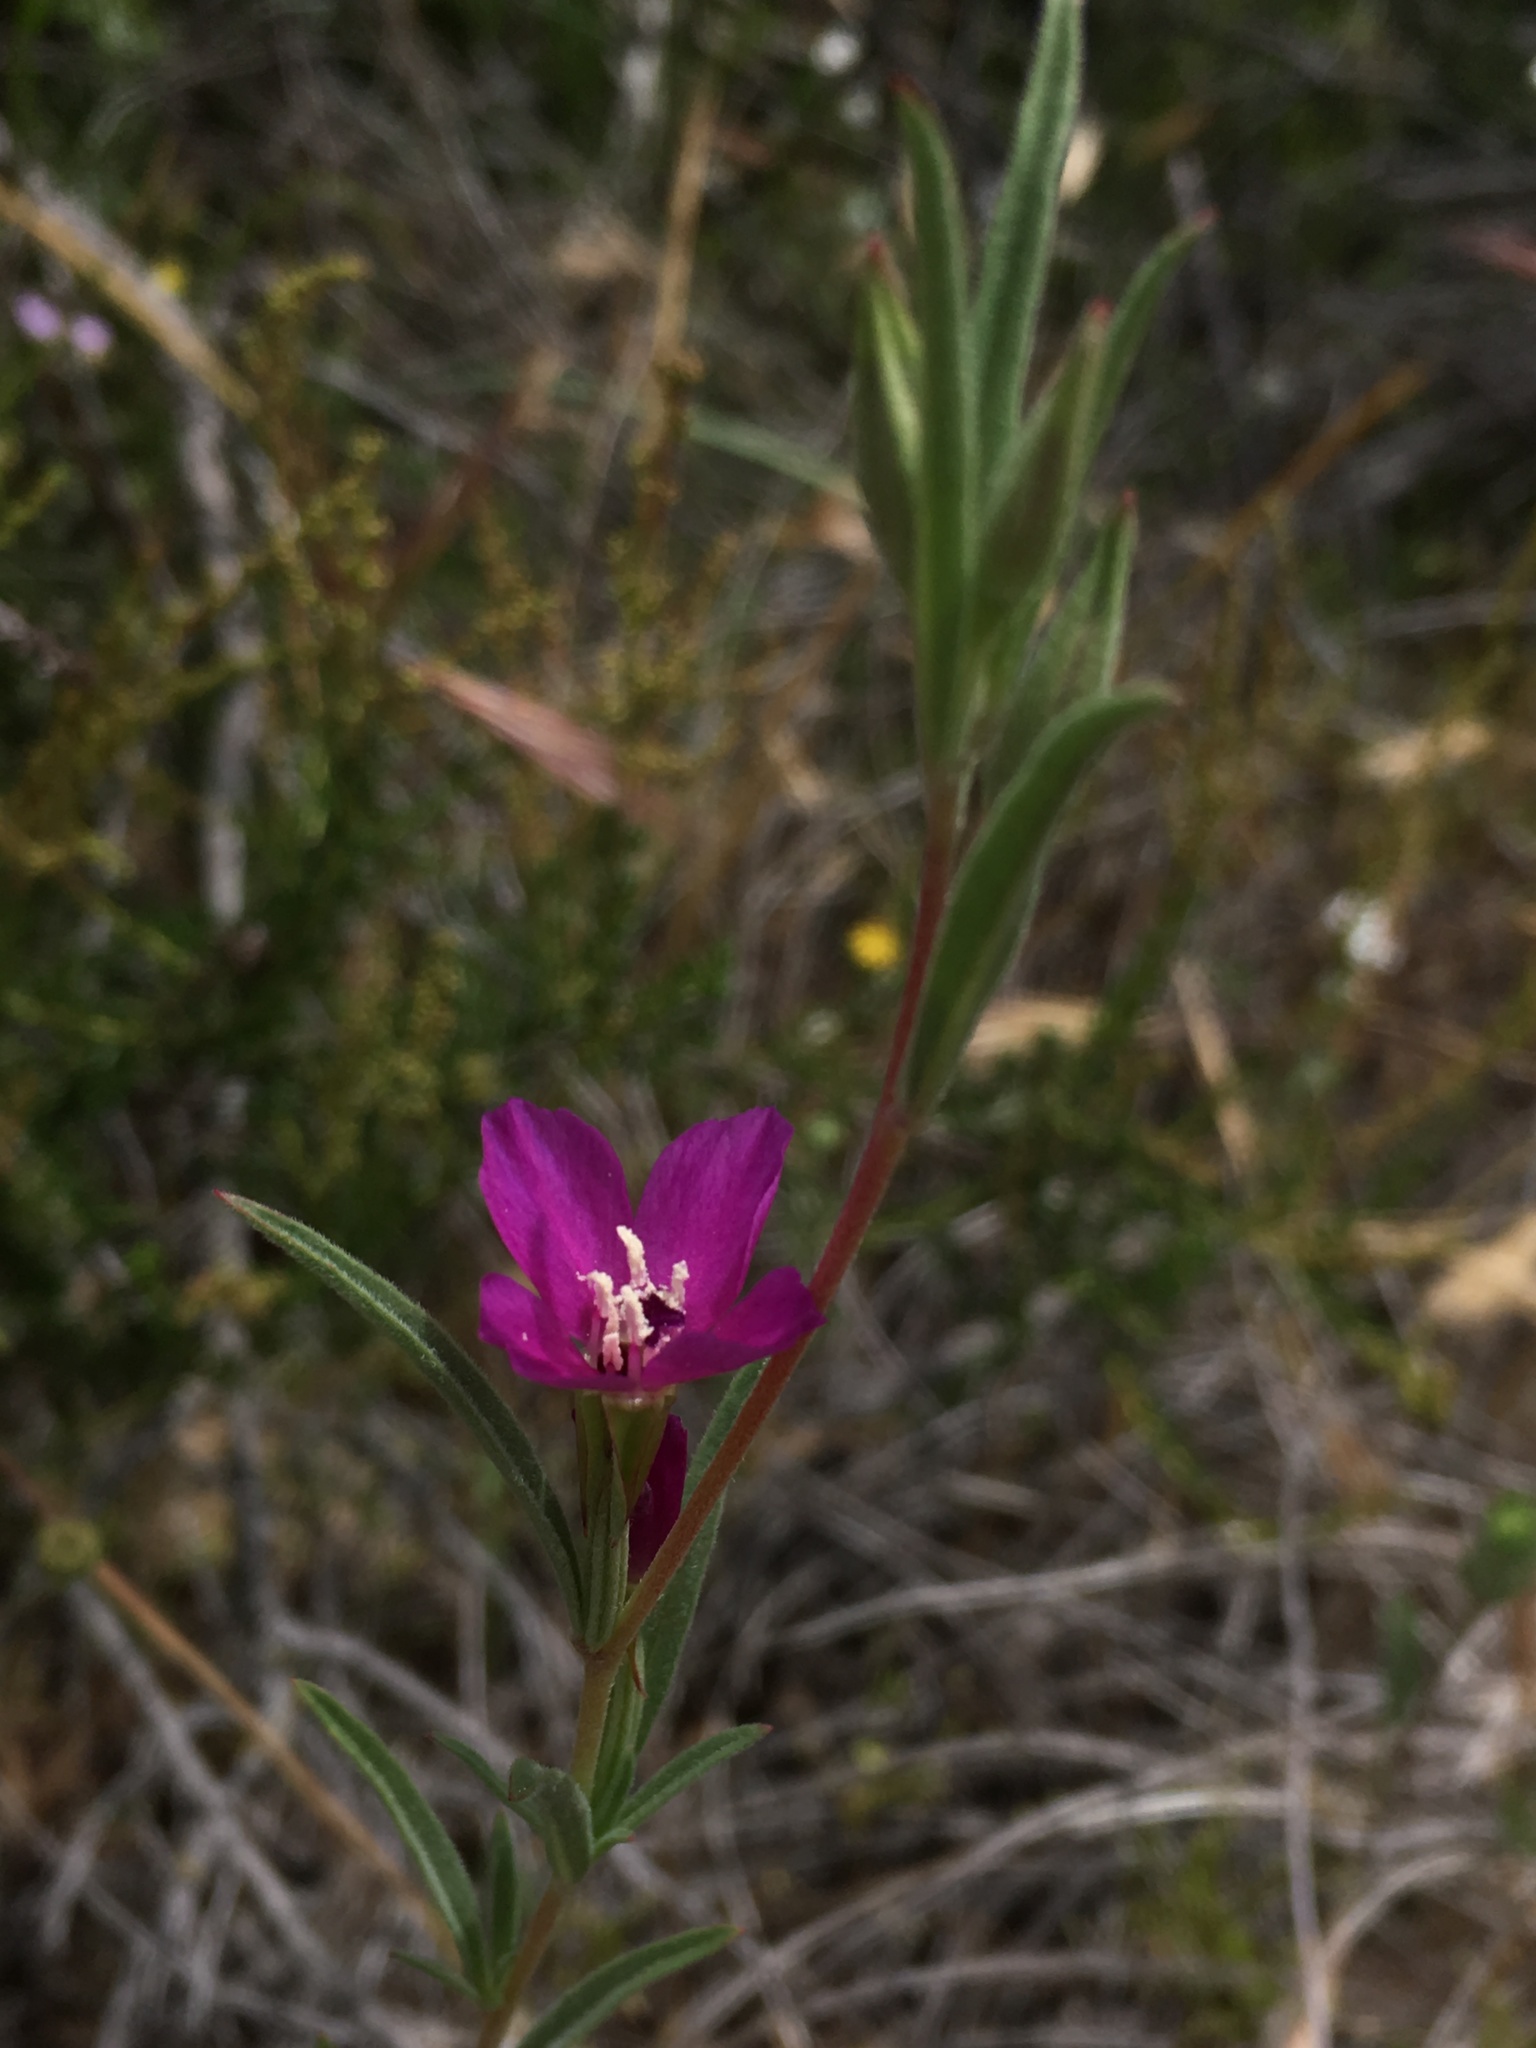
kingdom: Plantae
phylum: Tracheophyta
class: Magnoliopsida
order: Myrtales
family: Onagraceae
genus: Clarkia
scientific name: Clarkia purpurea
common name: Purple clarkia
